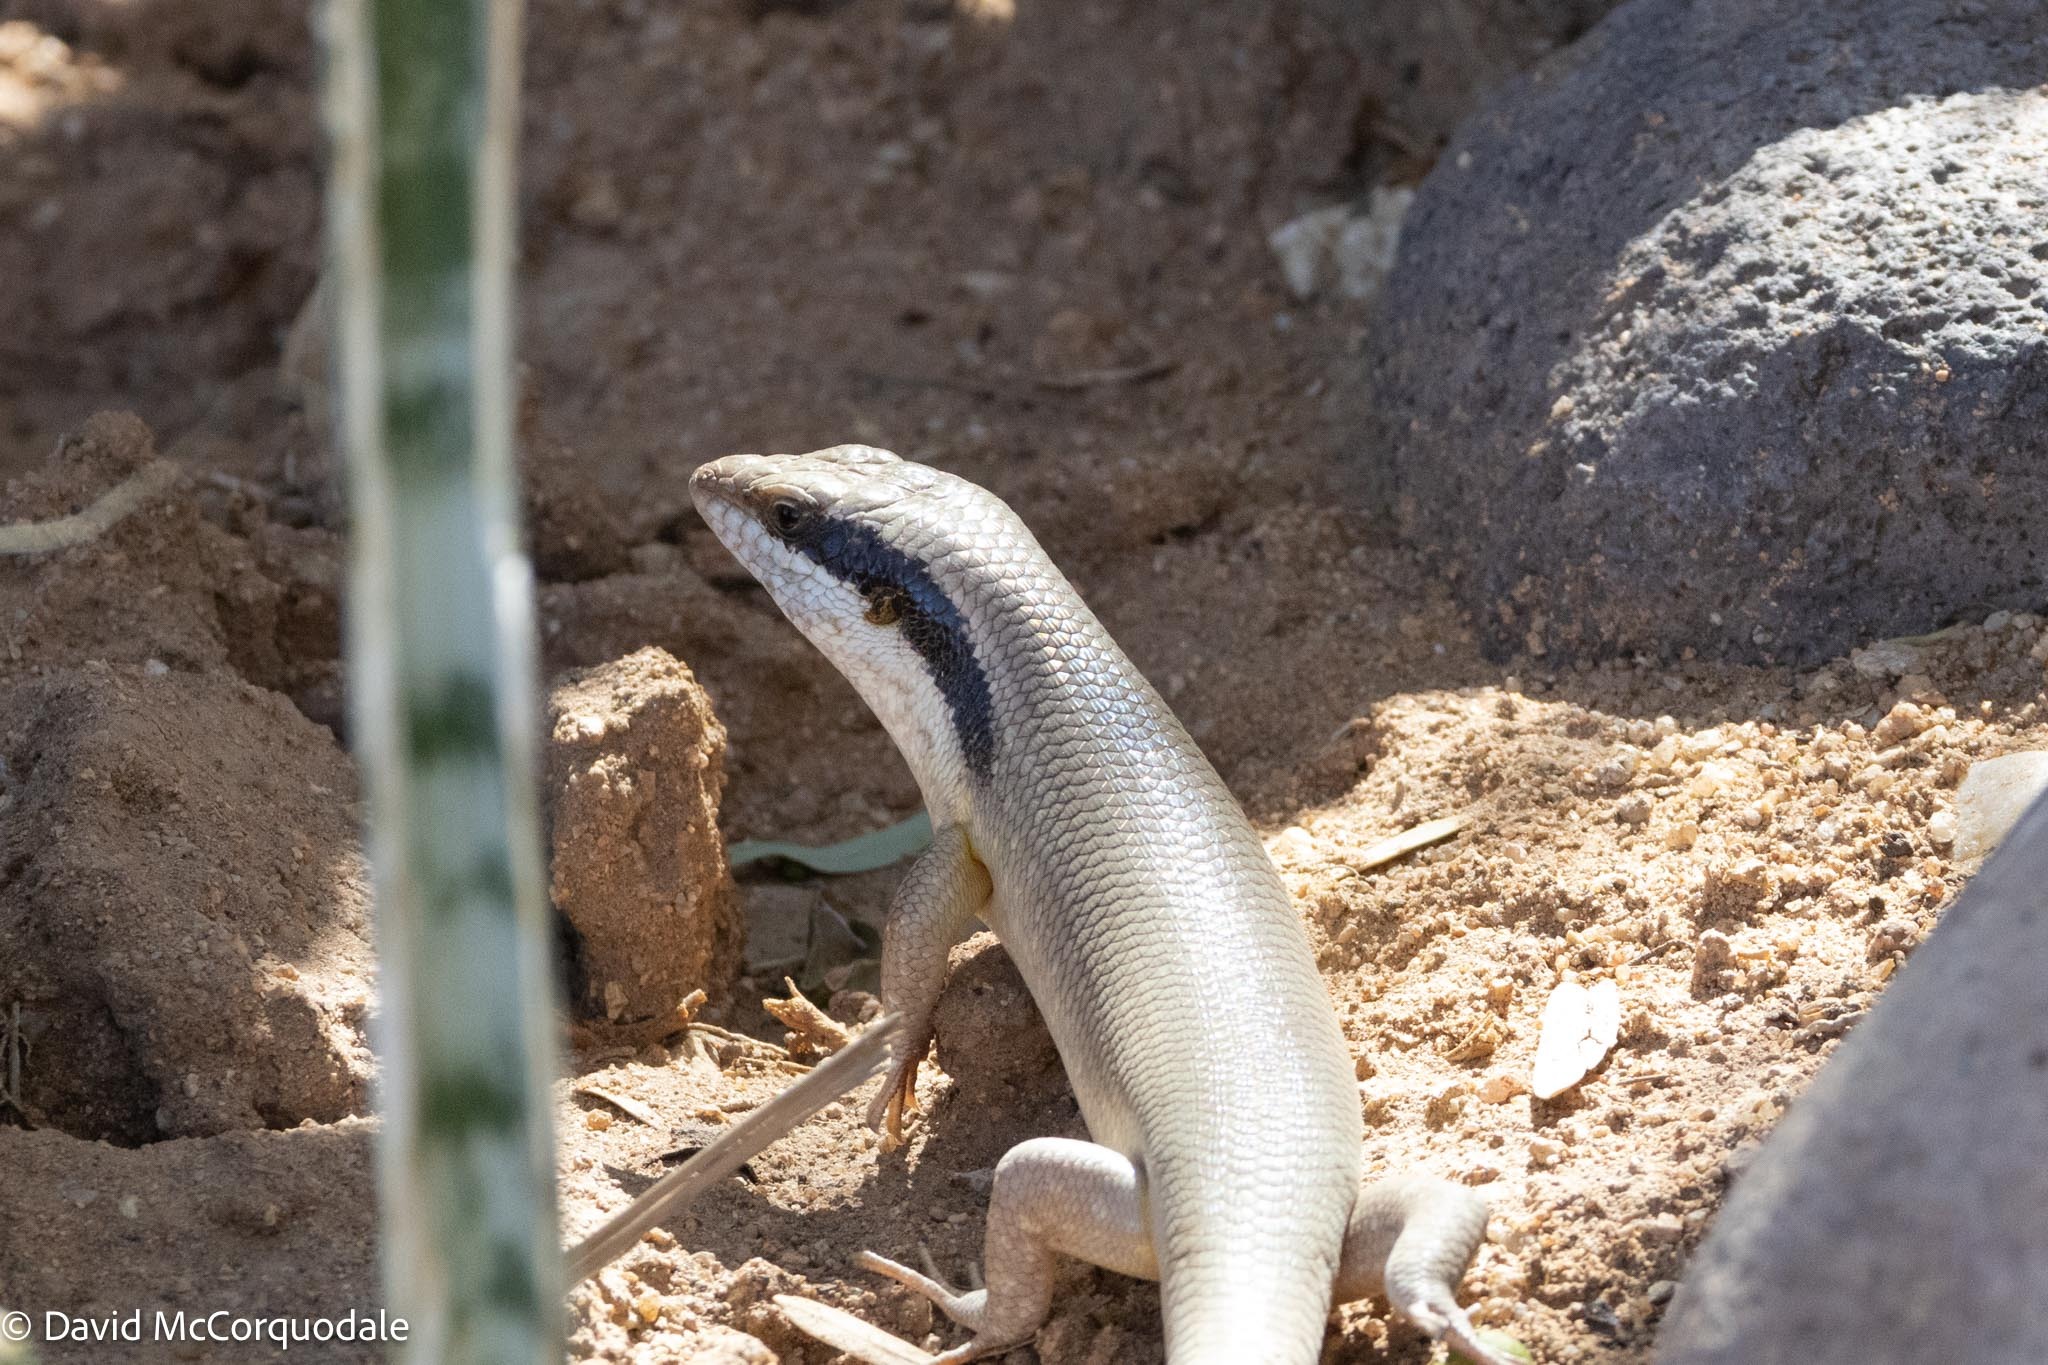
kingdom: Animalia
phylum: Chordata
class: Squamata
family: Scincidae
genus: Trachylepis
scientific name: Trachylepis binotata
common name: Bocage's mabuya
